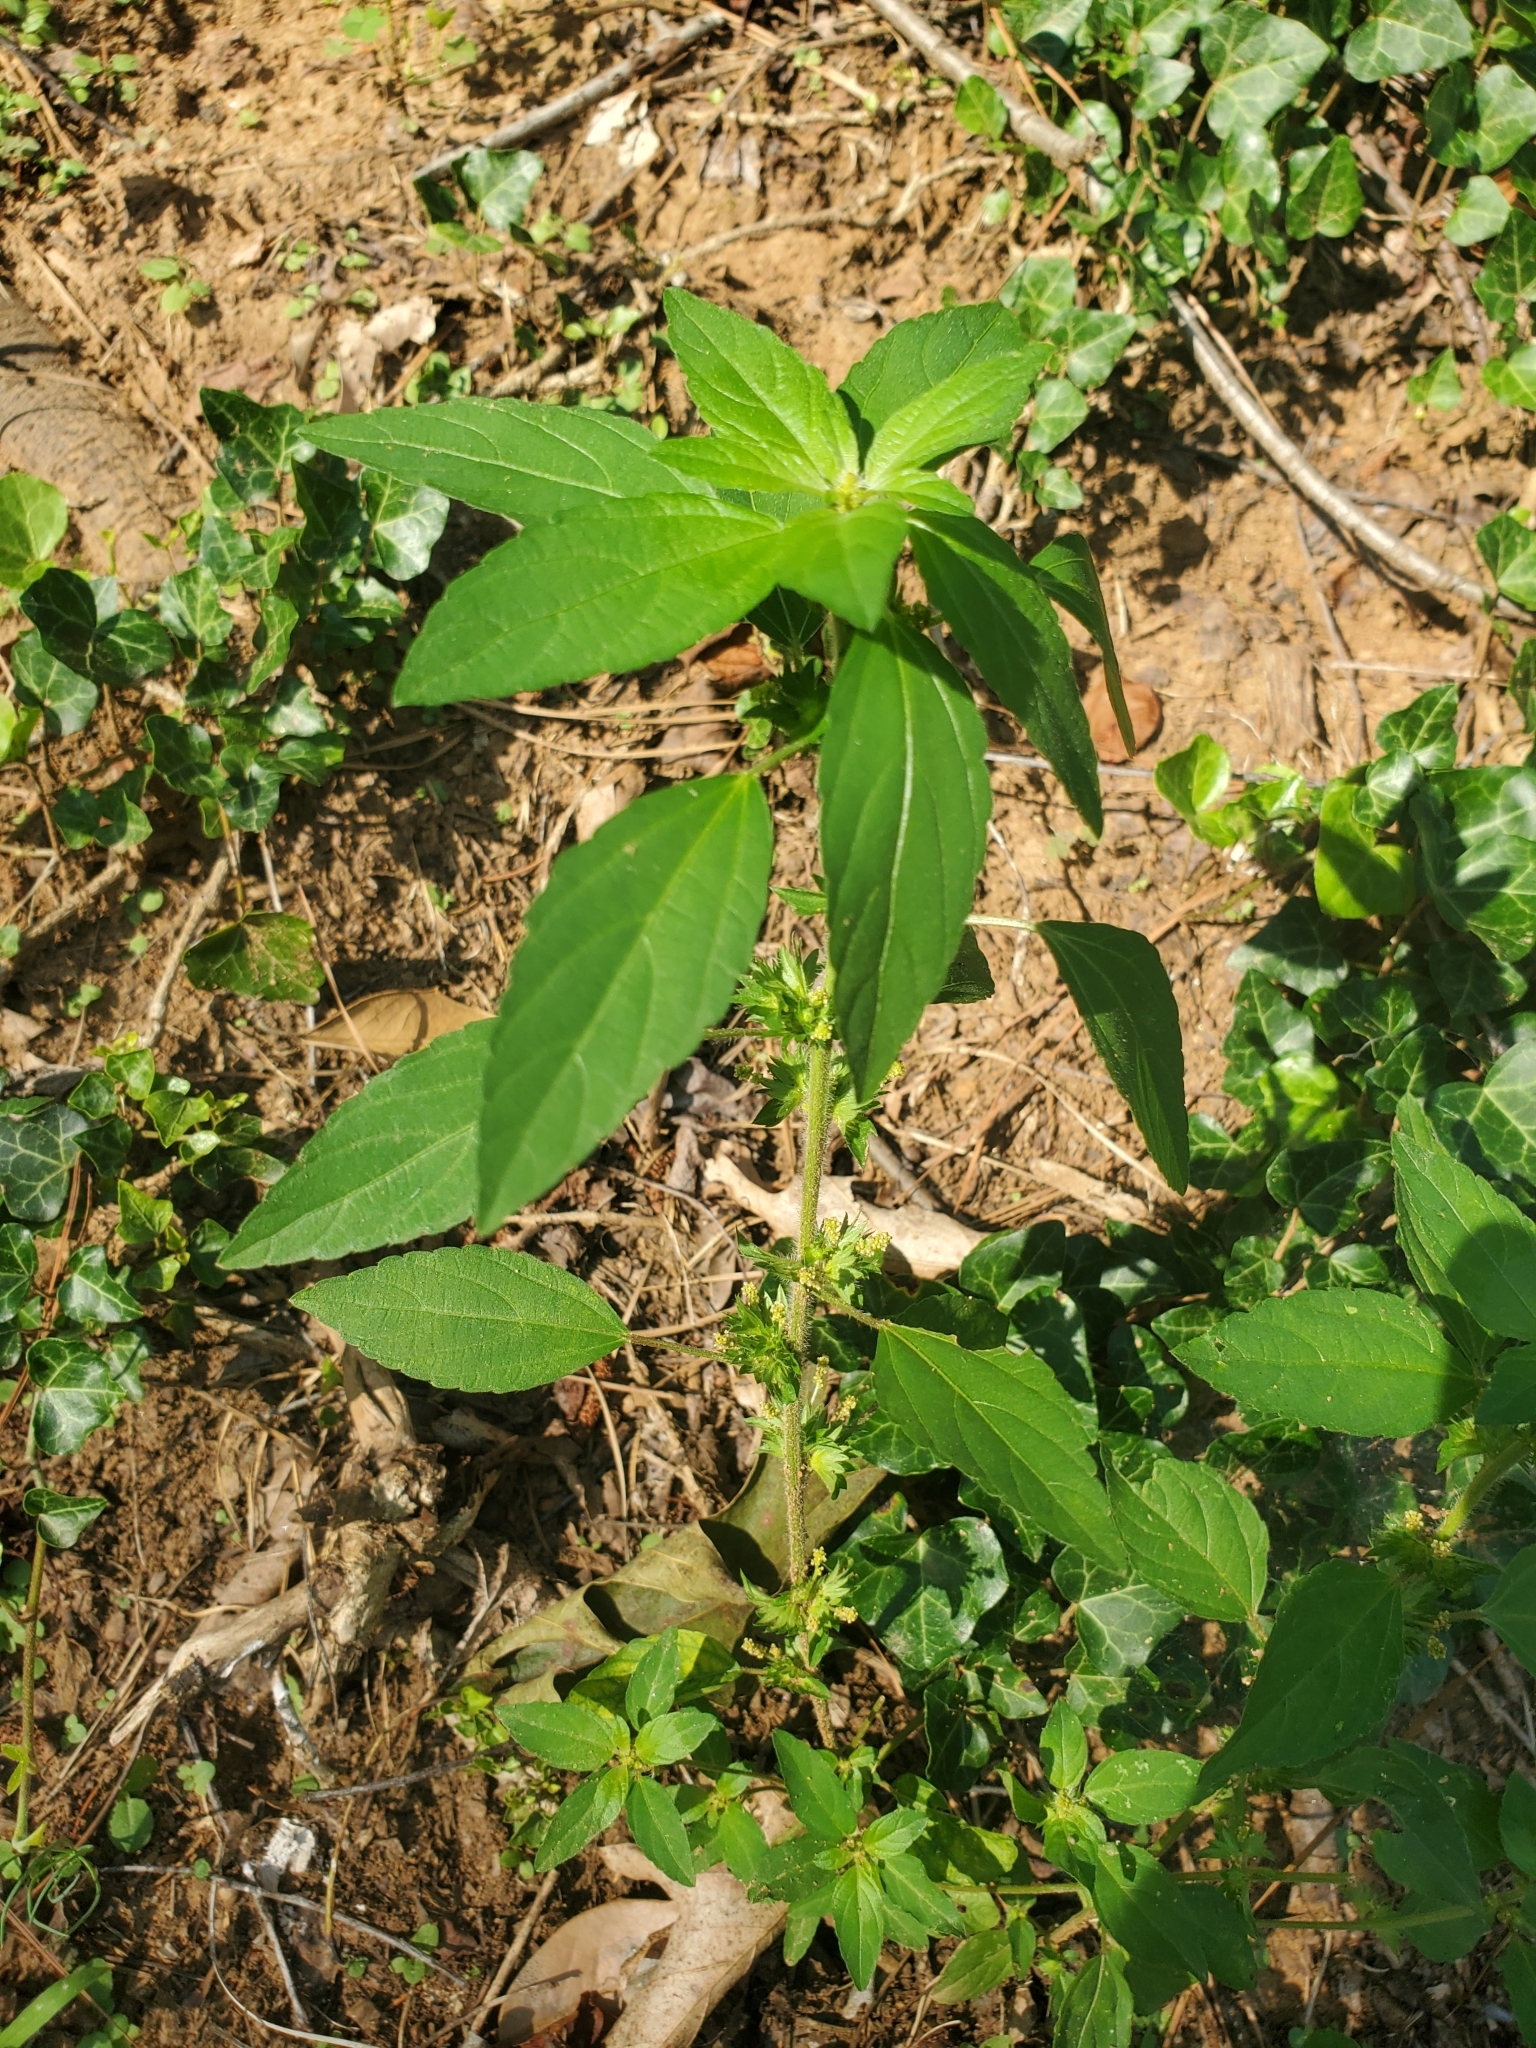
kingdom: Plantae
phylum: Tracheophyta
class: Magnoliopsida
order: Malpighiales
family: Euphorbiaceae
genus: Acalypha
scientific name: Acalypha virginica
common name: Virginia copperleaf
